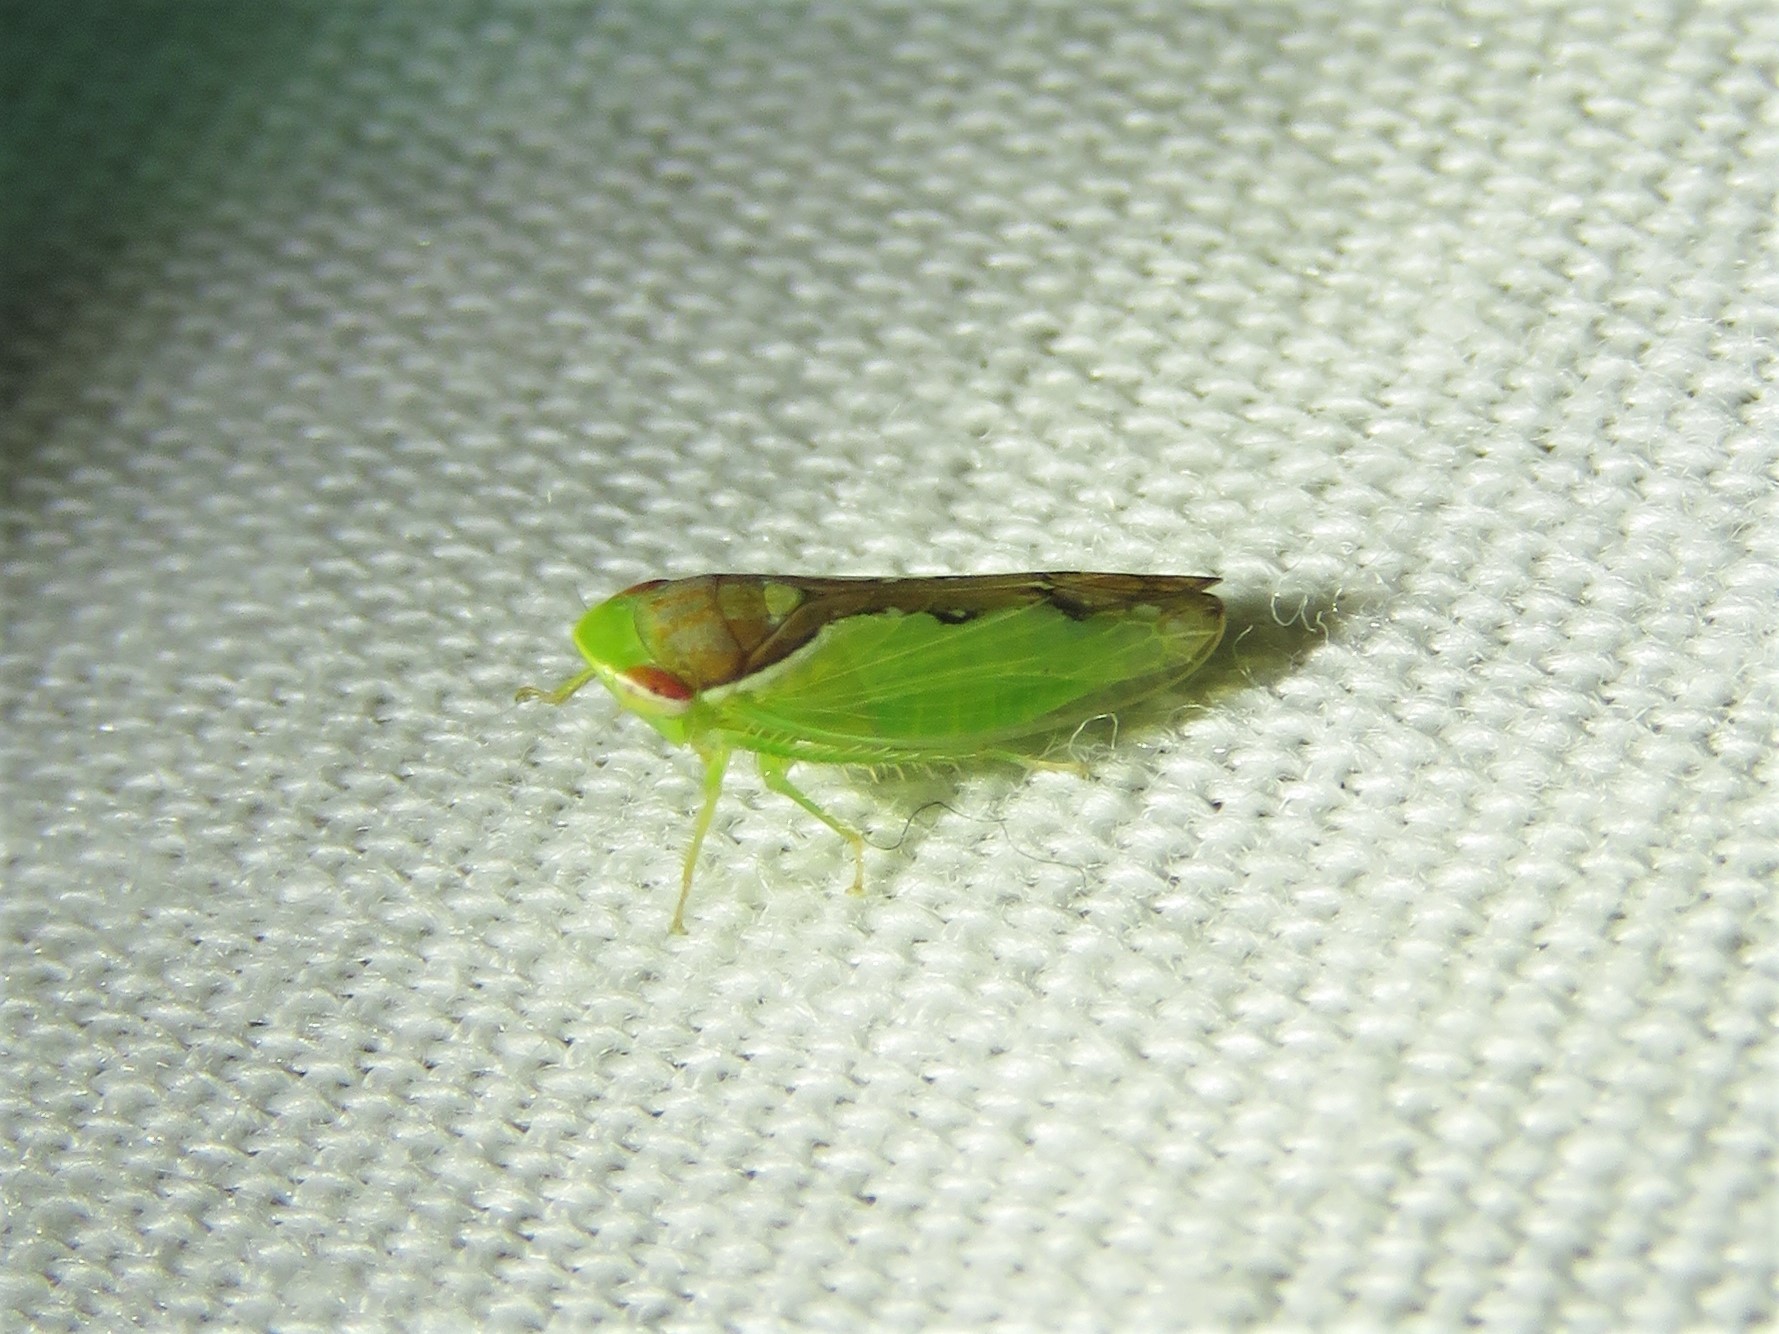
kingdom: Animalia
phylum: Arthropoda
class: Insecta
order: Hemiptera
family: Cicadellidae
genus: Omansobara ing
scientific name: Omansobara ing Omansobara palliolata
